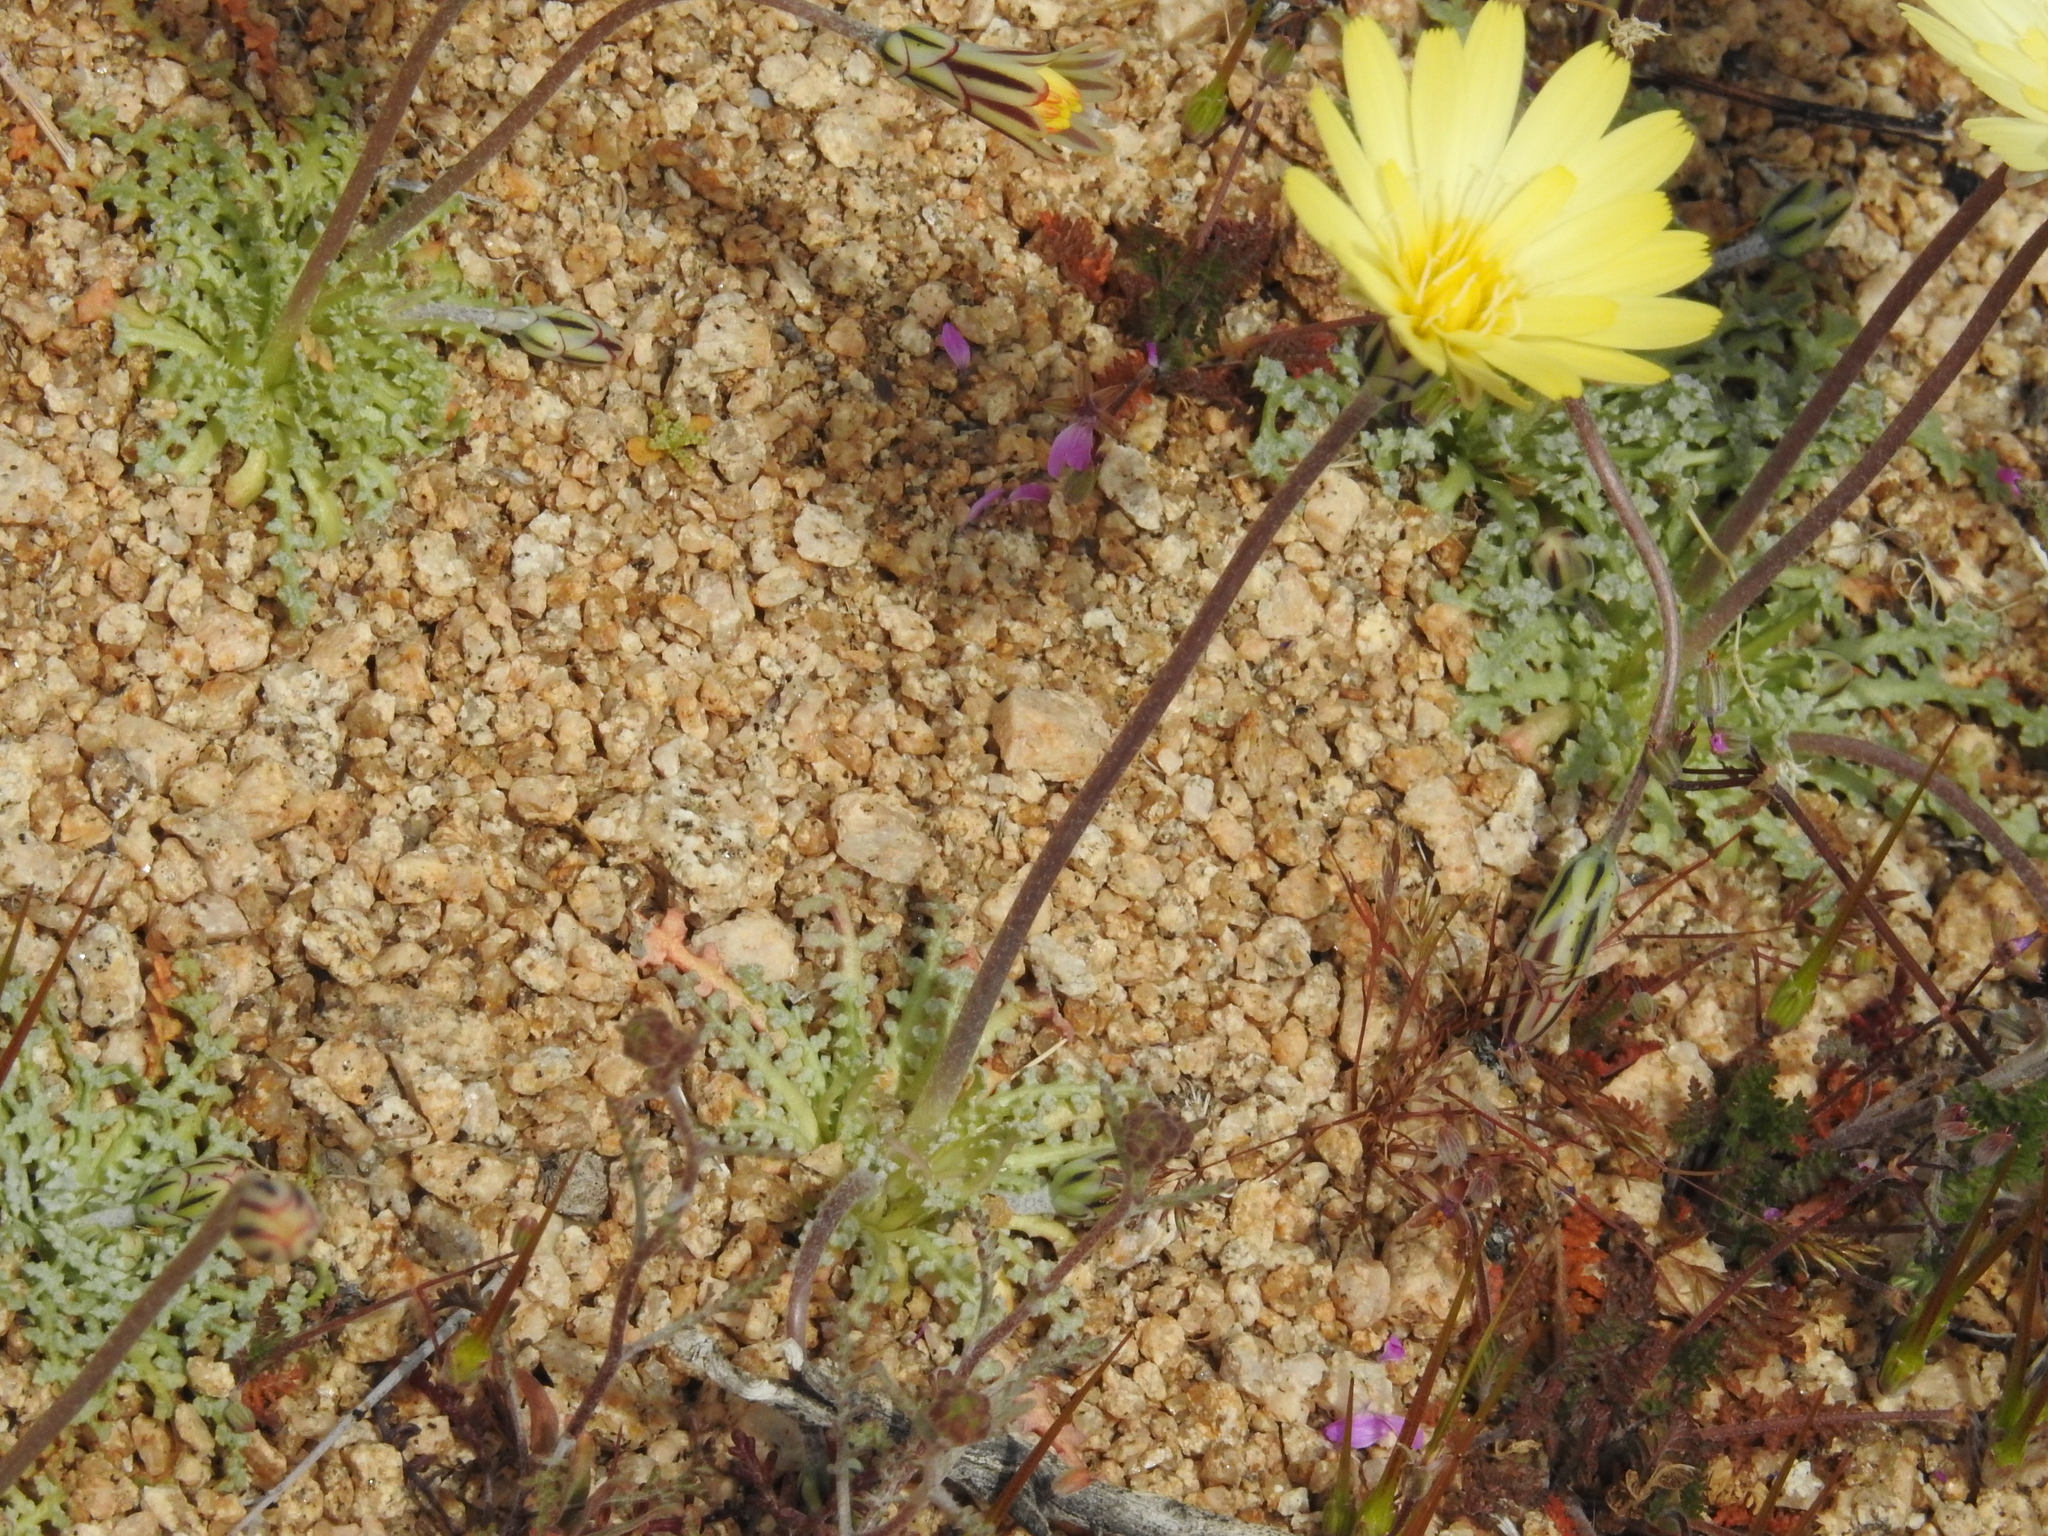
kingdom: Plantae
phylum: Tracheophyta
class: Magnoliopsida
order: Asterales
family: Asteraceae
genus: Anisocoma
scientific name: Anisocoma acaulis
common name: Scalebud
